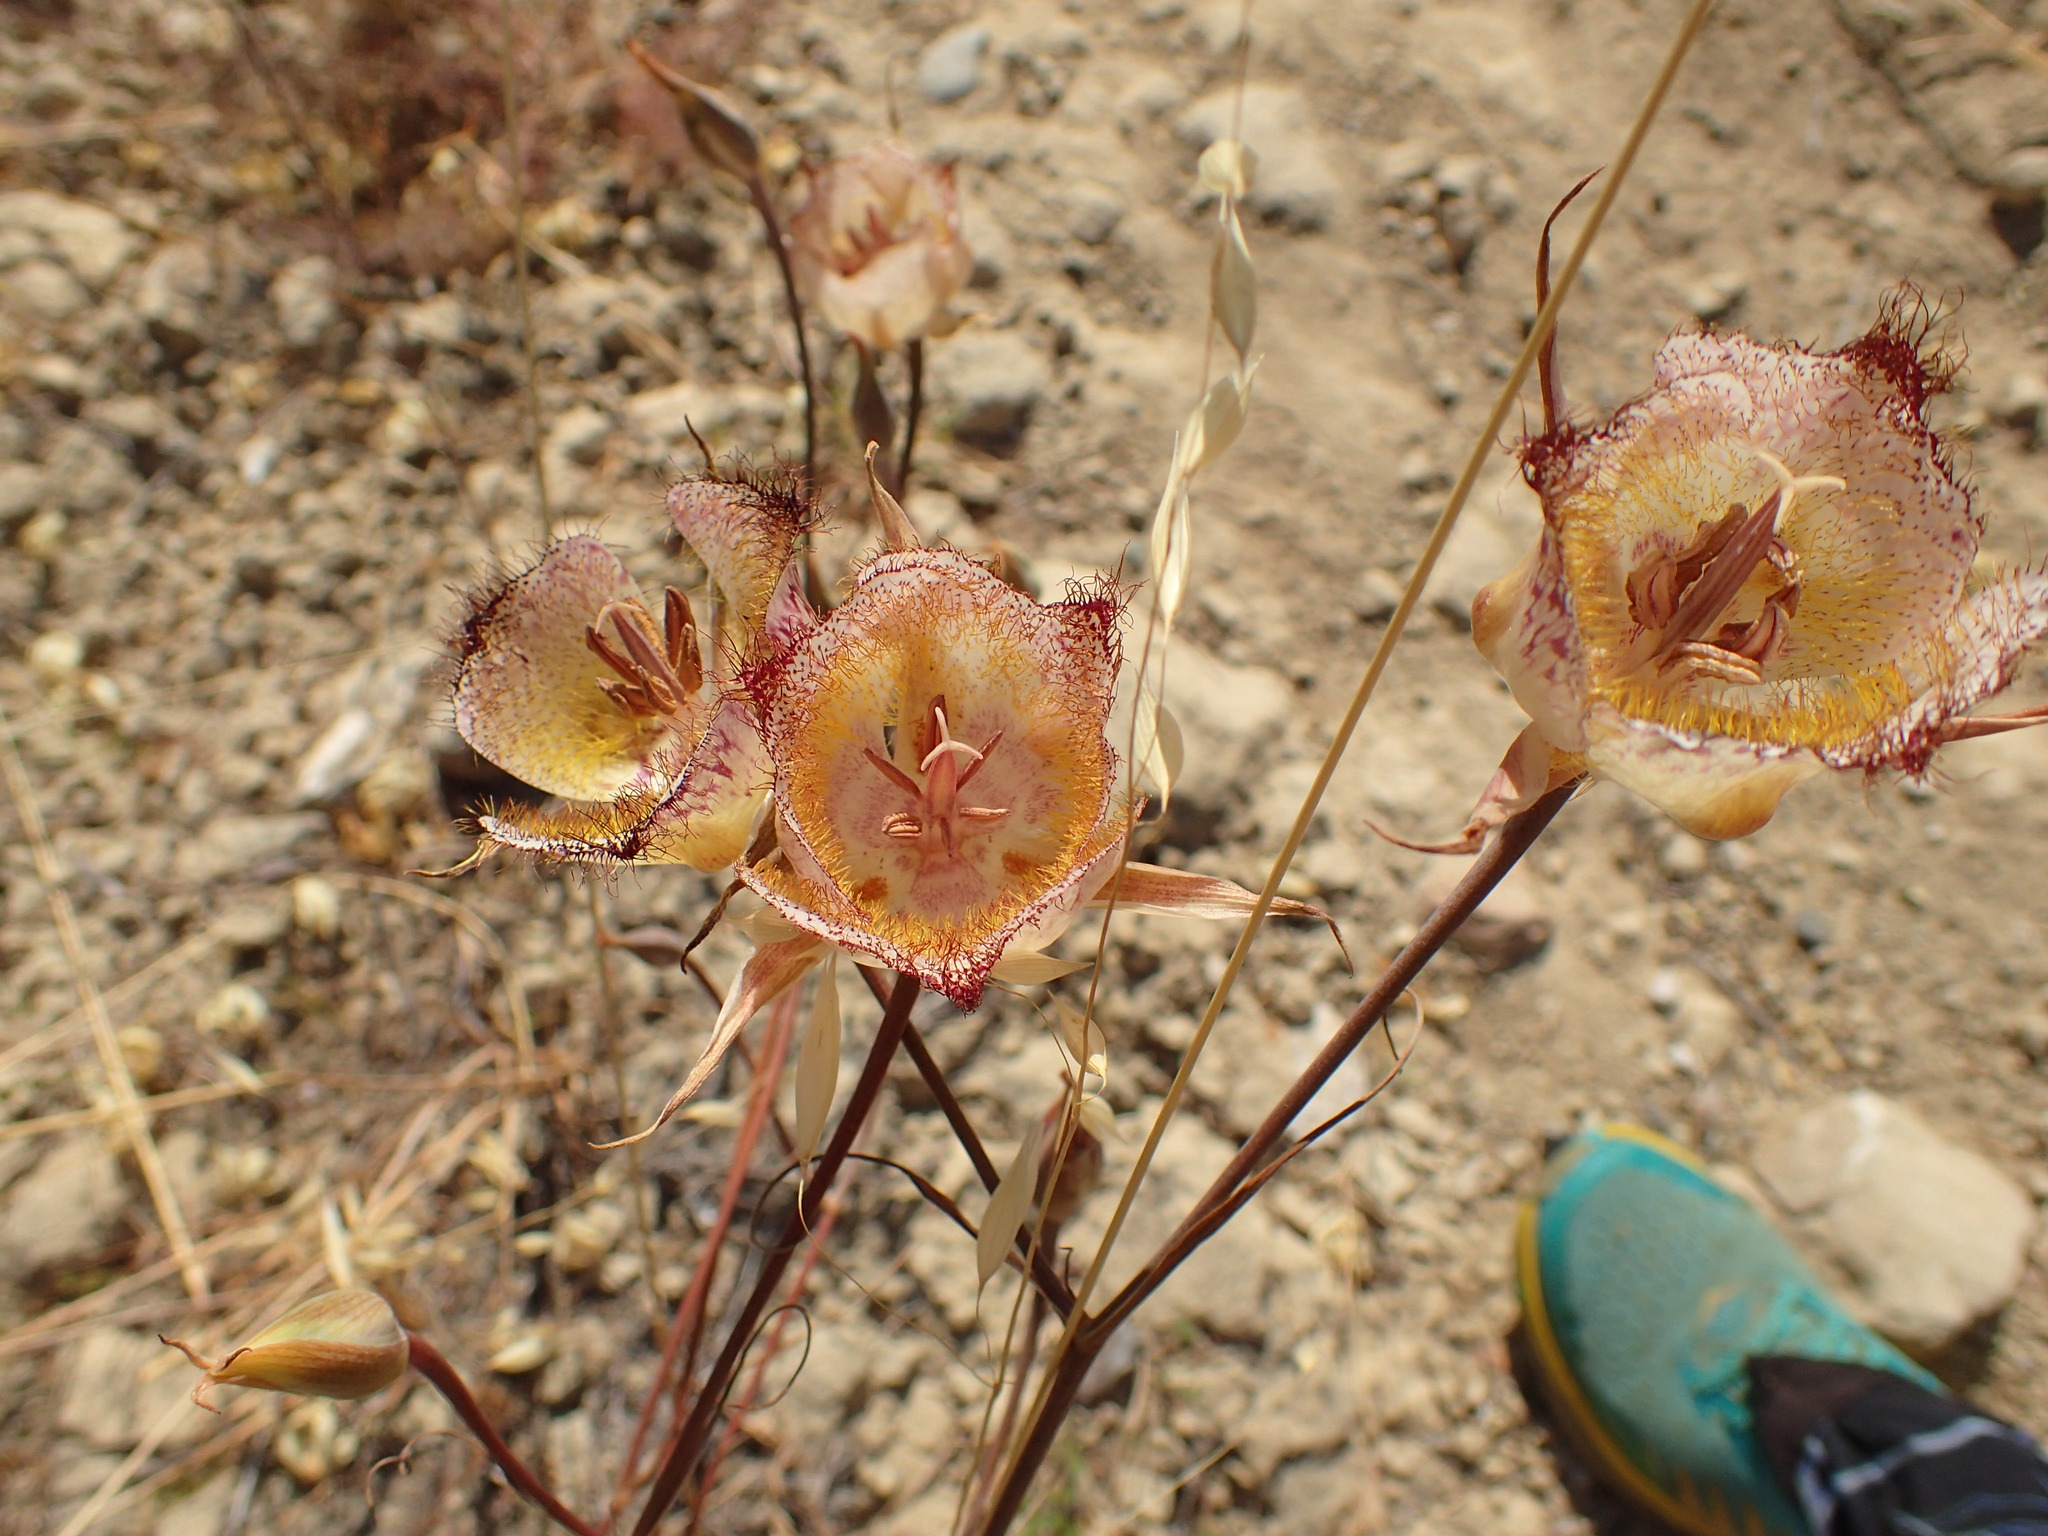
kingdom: Plantae
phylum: Tracheophyta
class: Liliopsida
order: Liliales
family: Liliaceae
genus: Calochortus
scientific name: Calochortus fimbriatus
